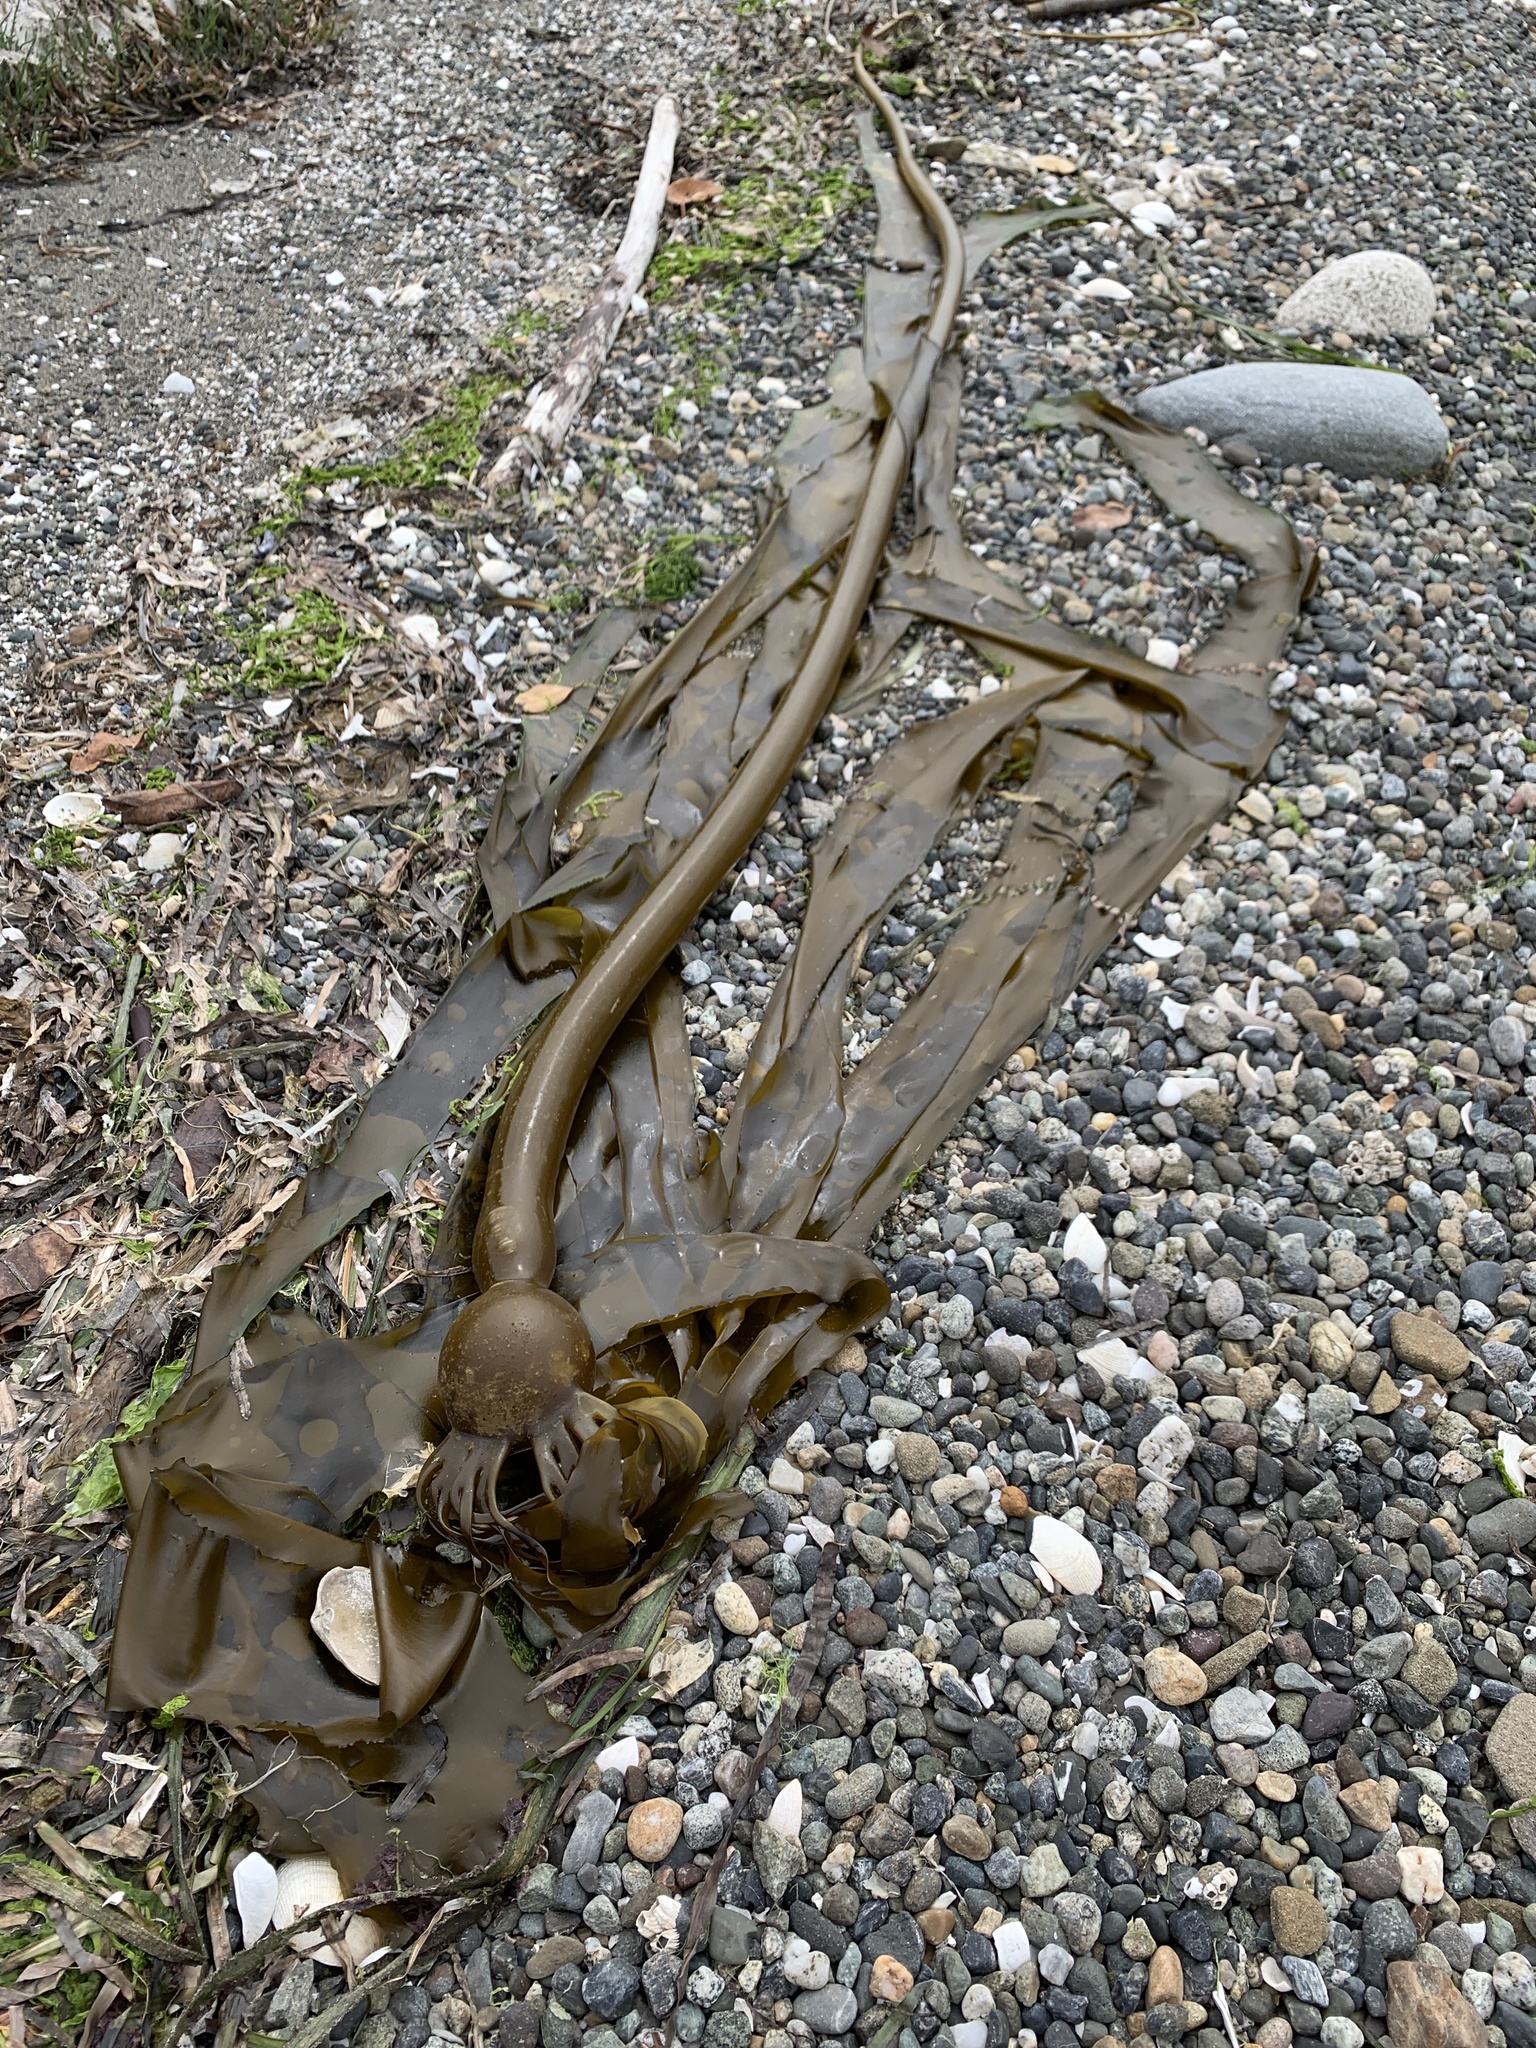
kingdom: Chromista
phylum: Ochrophyta
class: Phaeophyceae
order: Laminariales
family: Laminariaceae
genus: Nereocystis
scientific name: Nereocystis luetkeana
